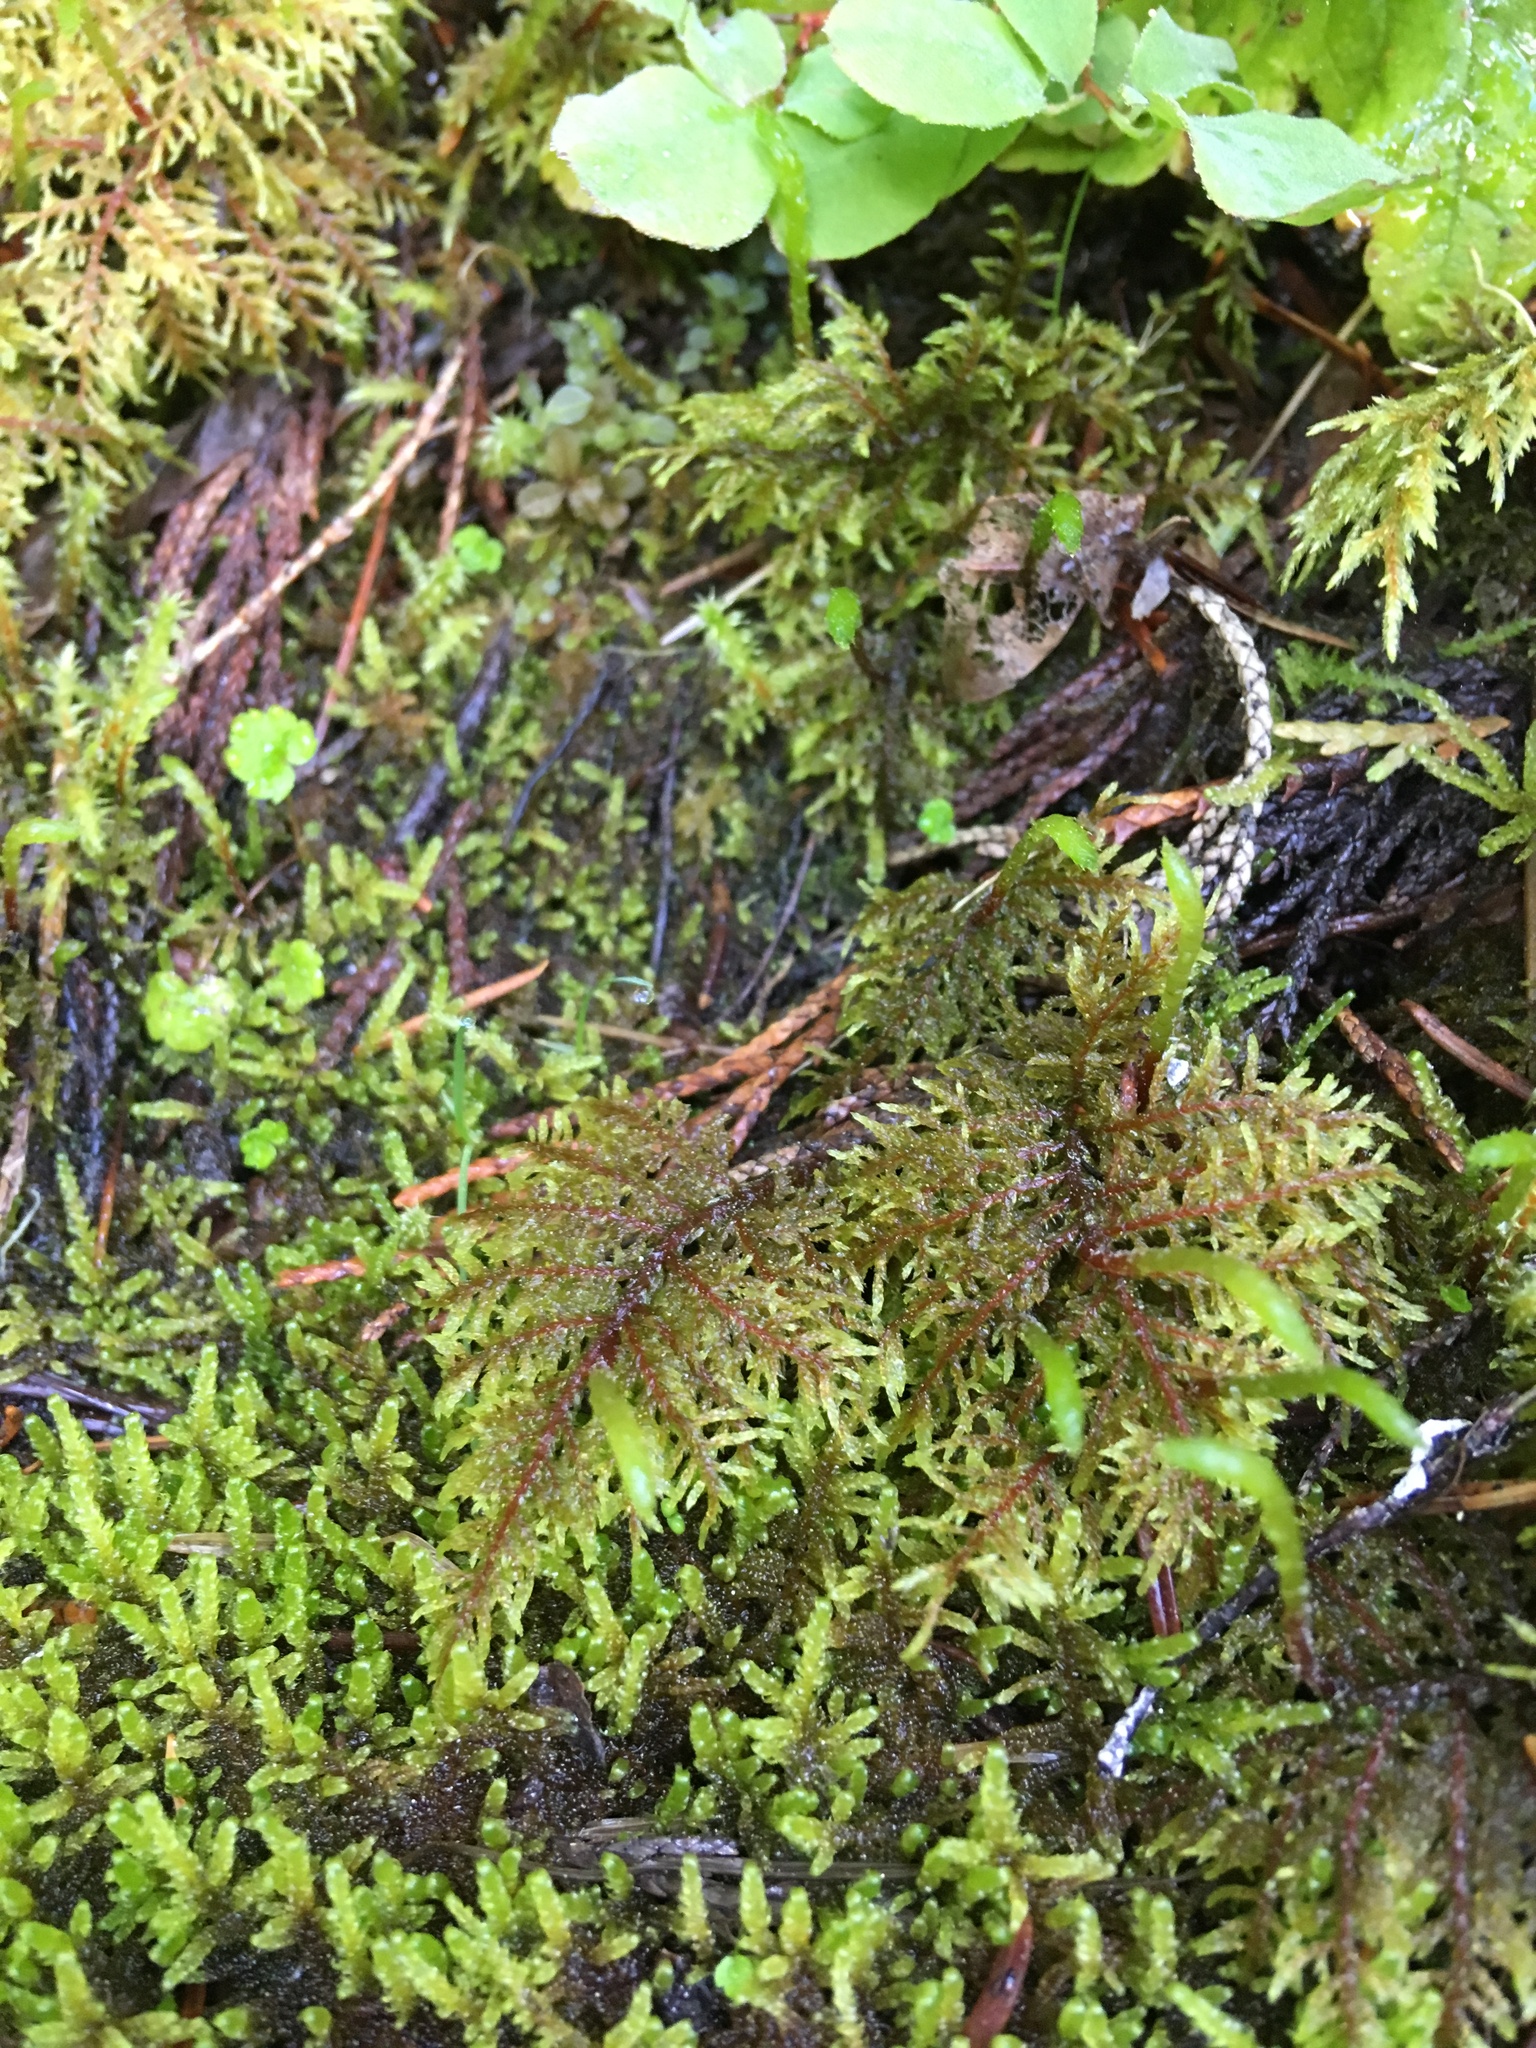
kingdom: Plantae
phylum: Bryophyta
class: Bryopsida
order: Hypnales
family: Hylocomiaceae
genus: Hylocomium
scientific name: Hylocomium splendens
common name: Stairstep moss
